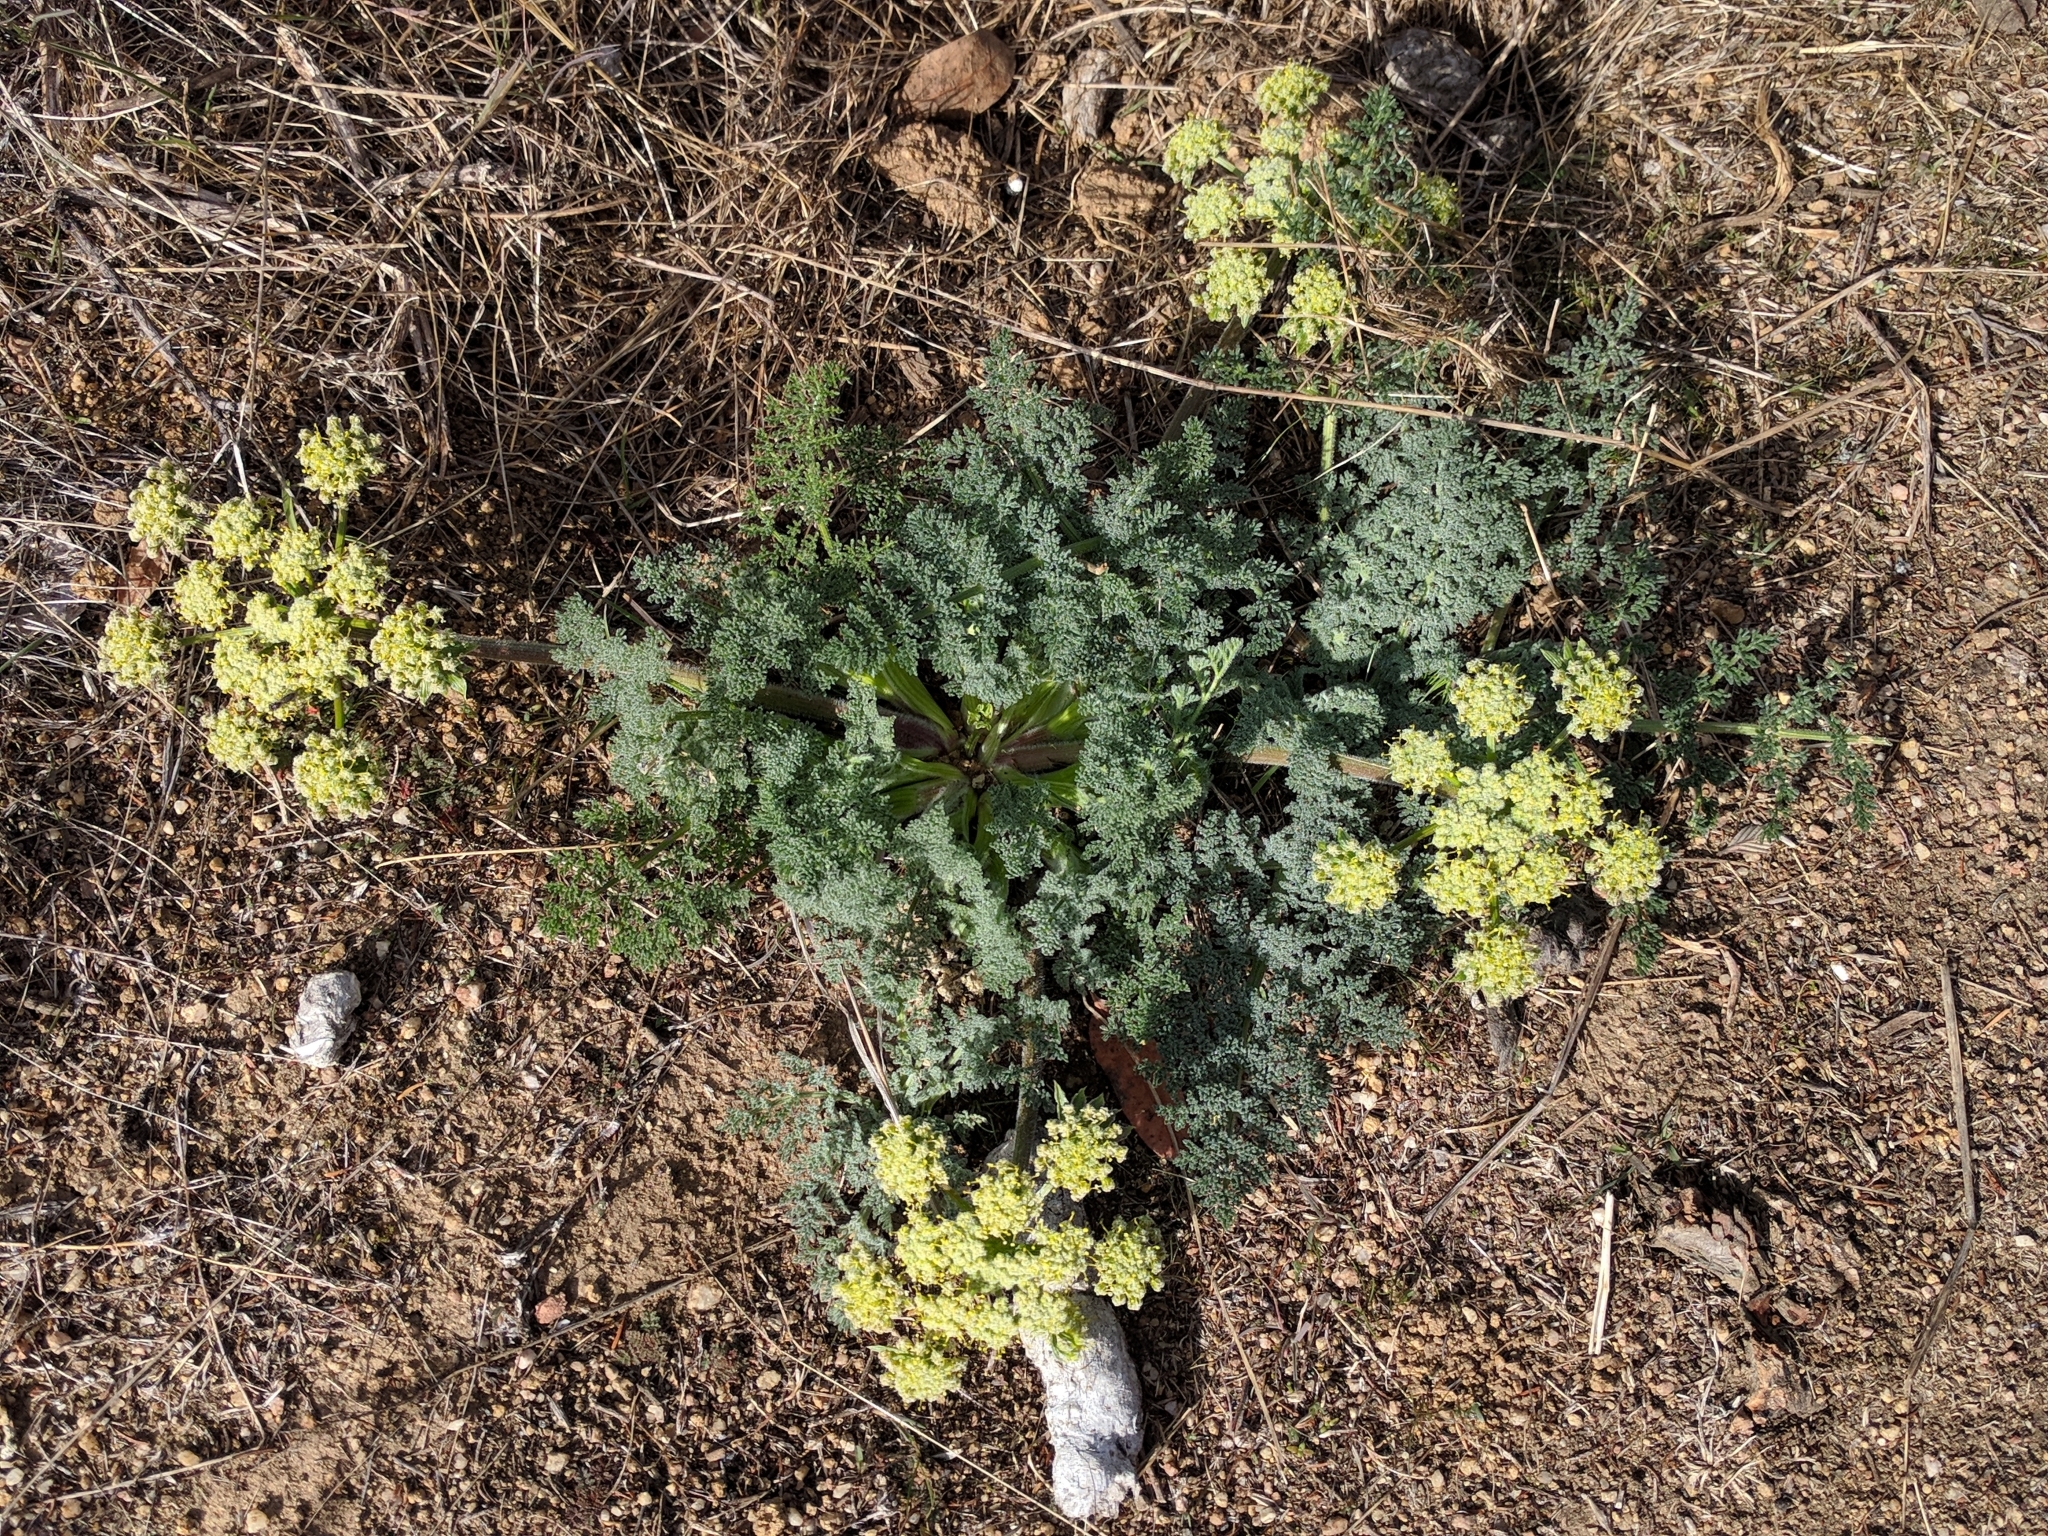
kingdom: Plantae
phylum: Tracheophyta
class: Magnoliopsida
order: Apiales
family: Apiaceae
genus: Lomatium
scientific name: Lomatium dasycarpum
